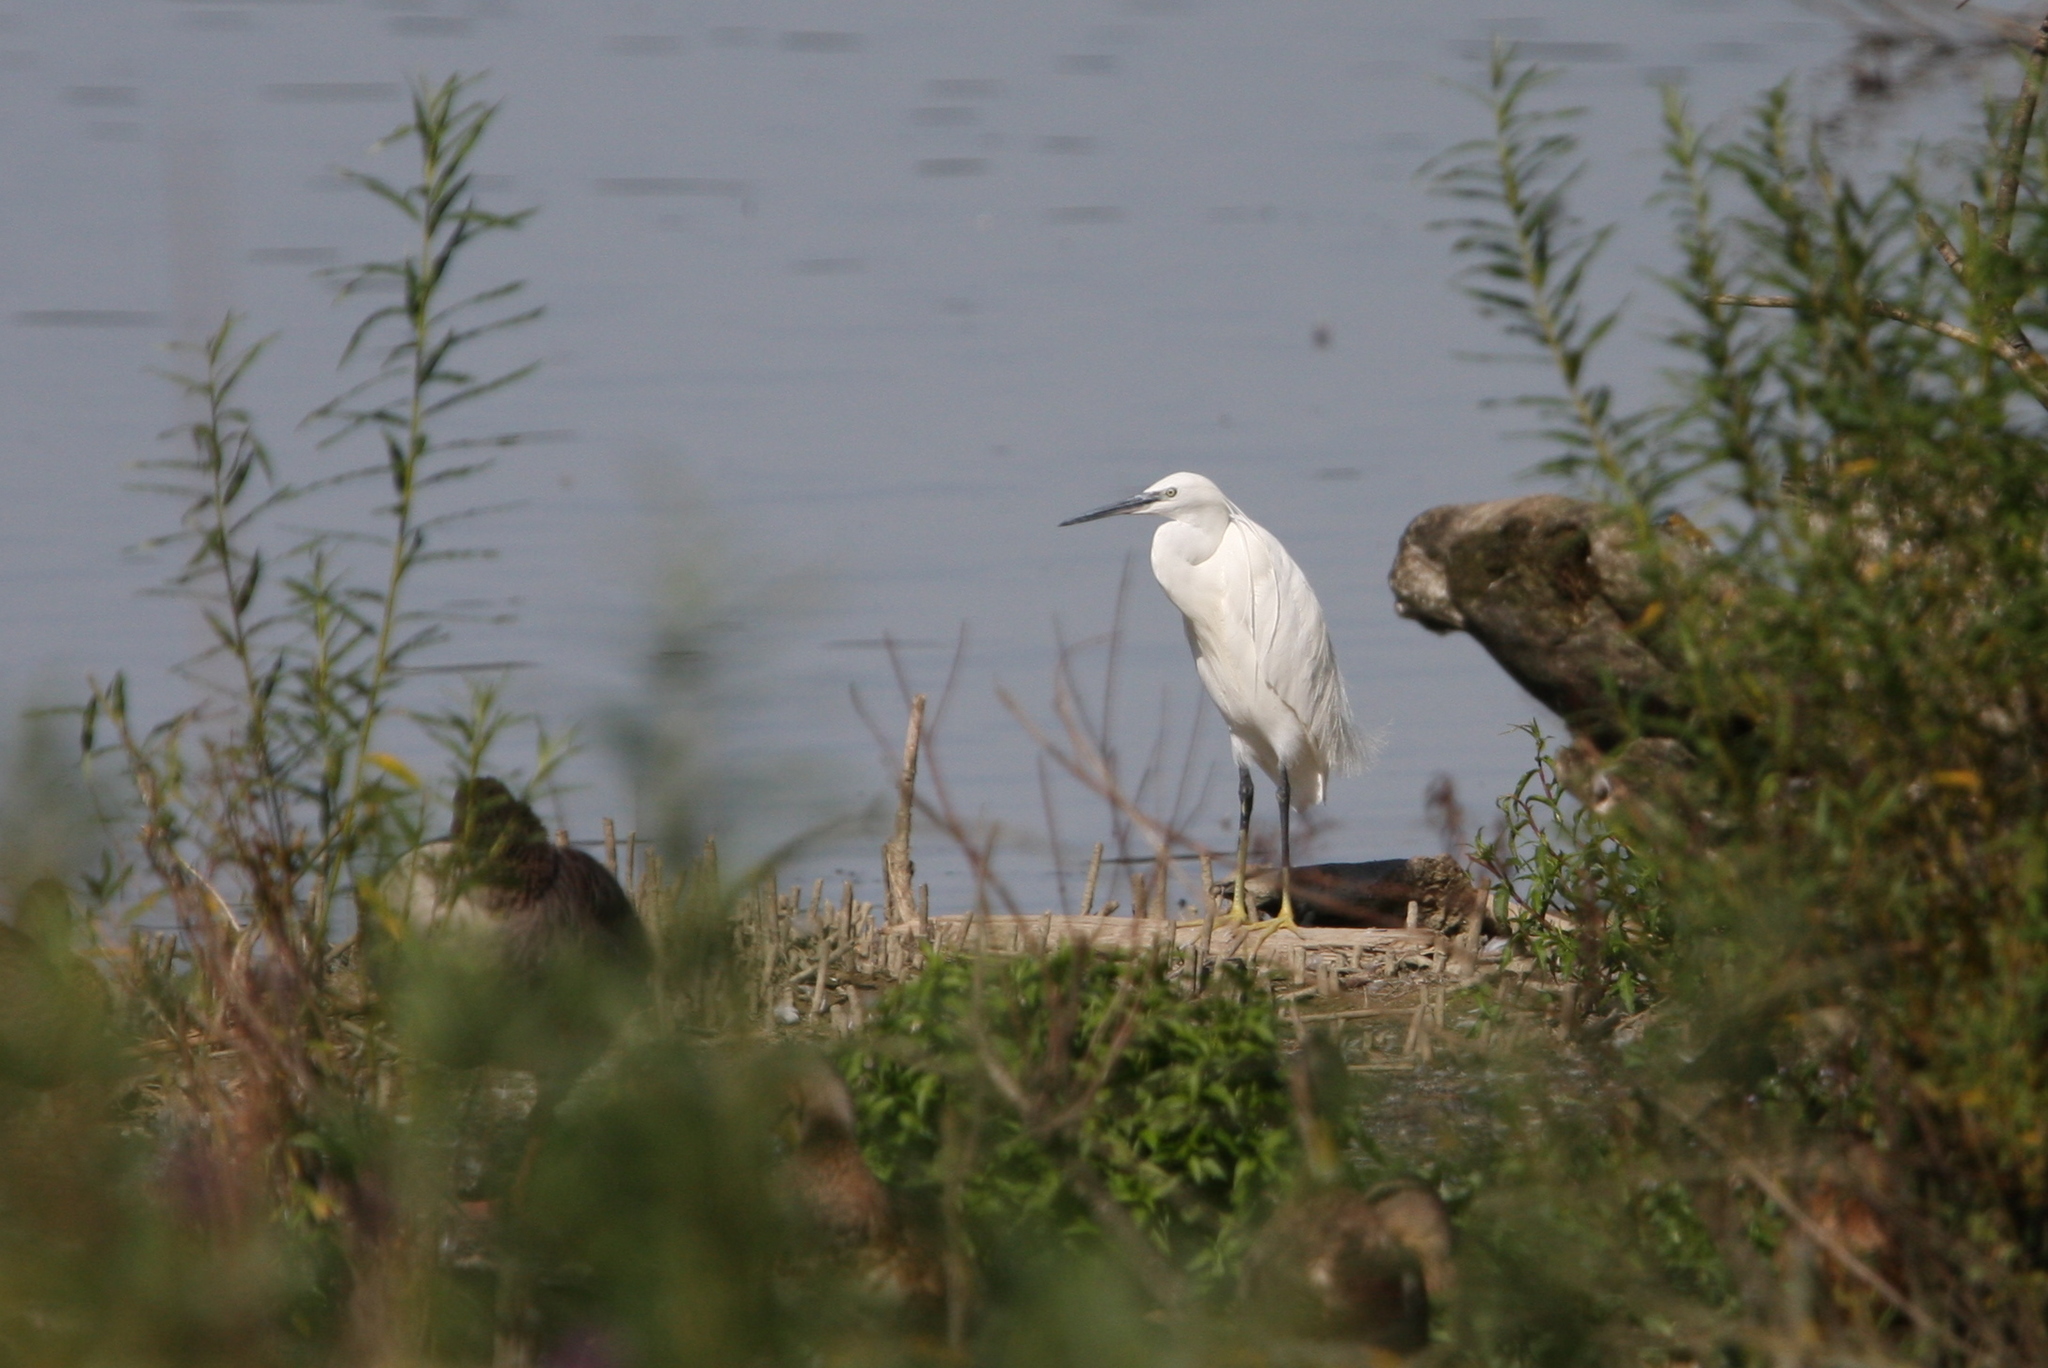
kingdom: Animalia
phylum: Chordata
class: Aves
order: Pelecaniformes
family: Ardeidae
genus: Egretta
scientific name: Egretta garzetta
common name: Little egret
